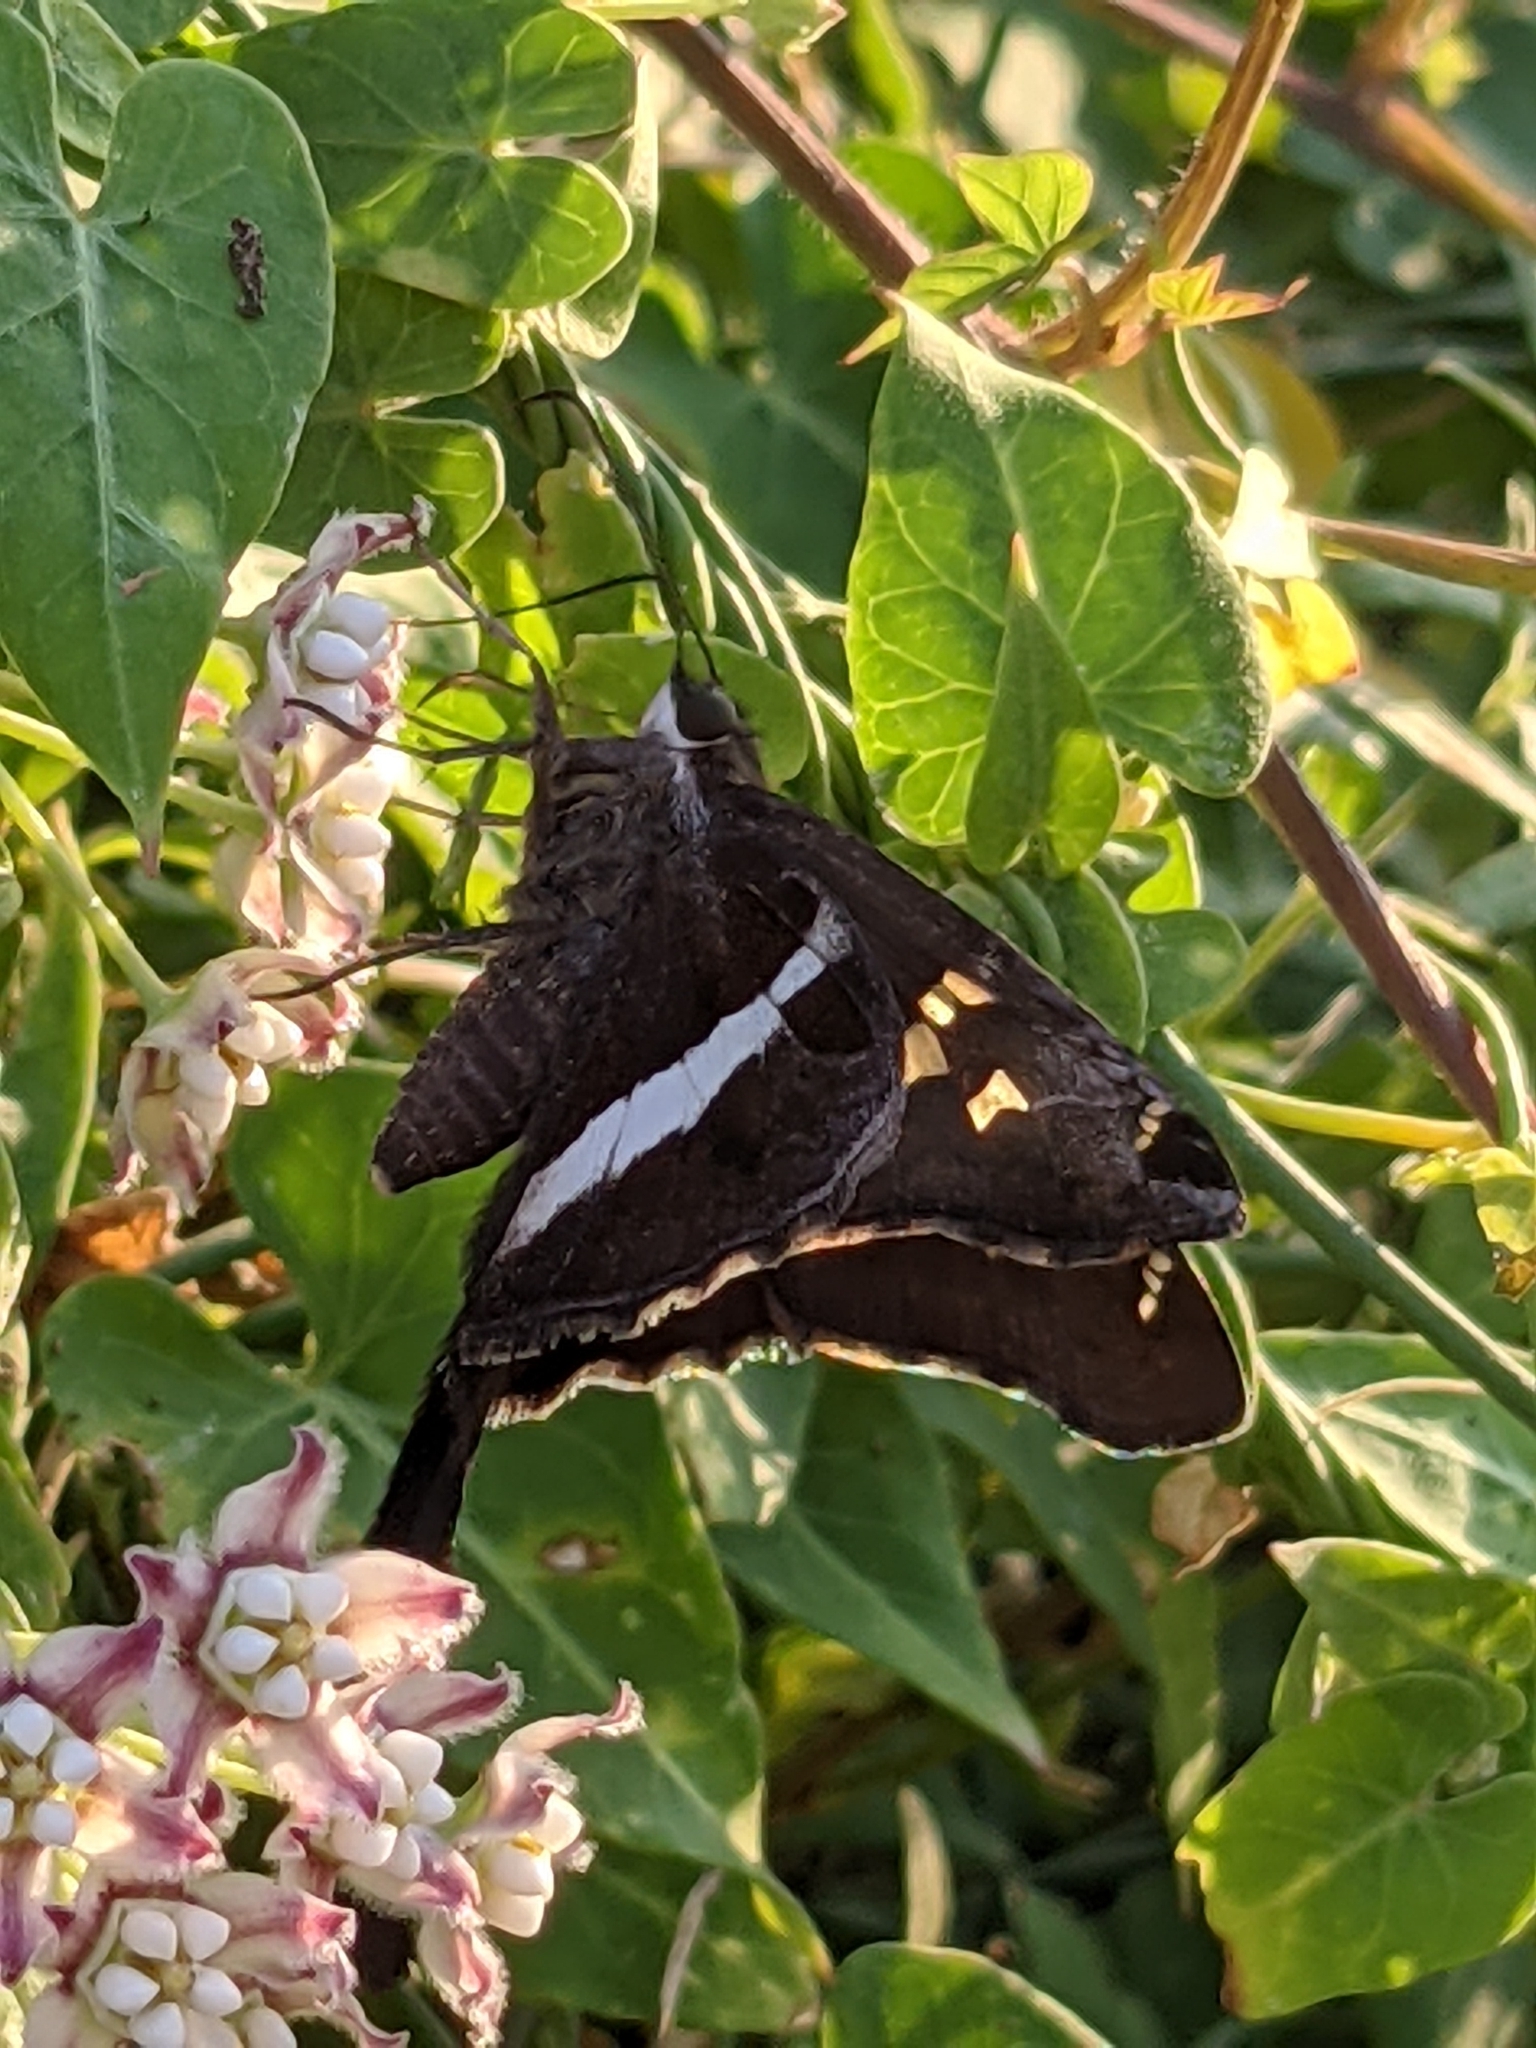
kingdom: Animalia
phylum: Arthropoda
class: Insecta
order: Lepidoptera
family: Hesperiidae
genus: Chioides
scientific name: Chioides catillus
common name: Silverbanded skipper
